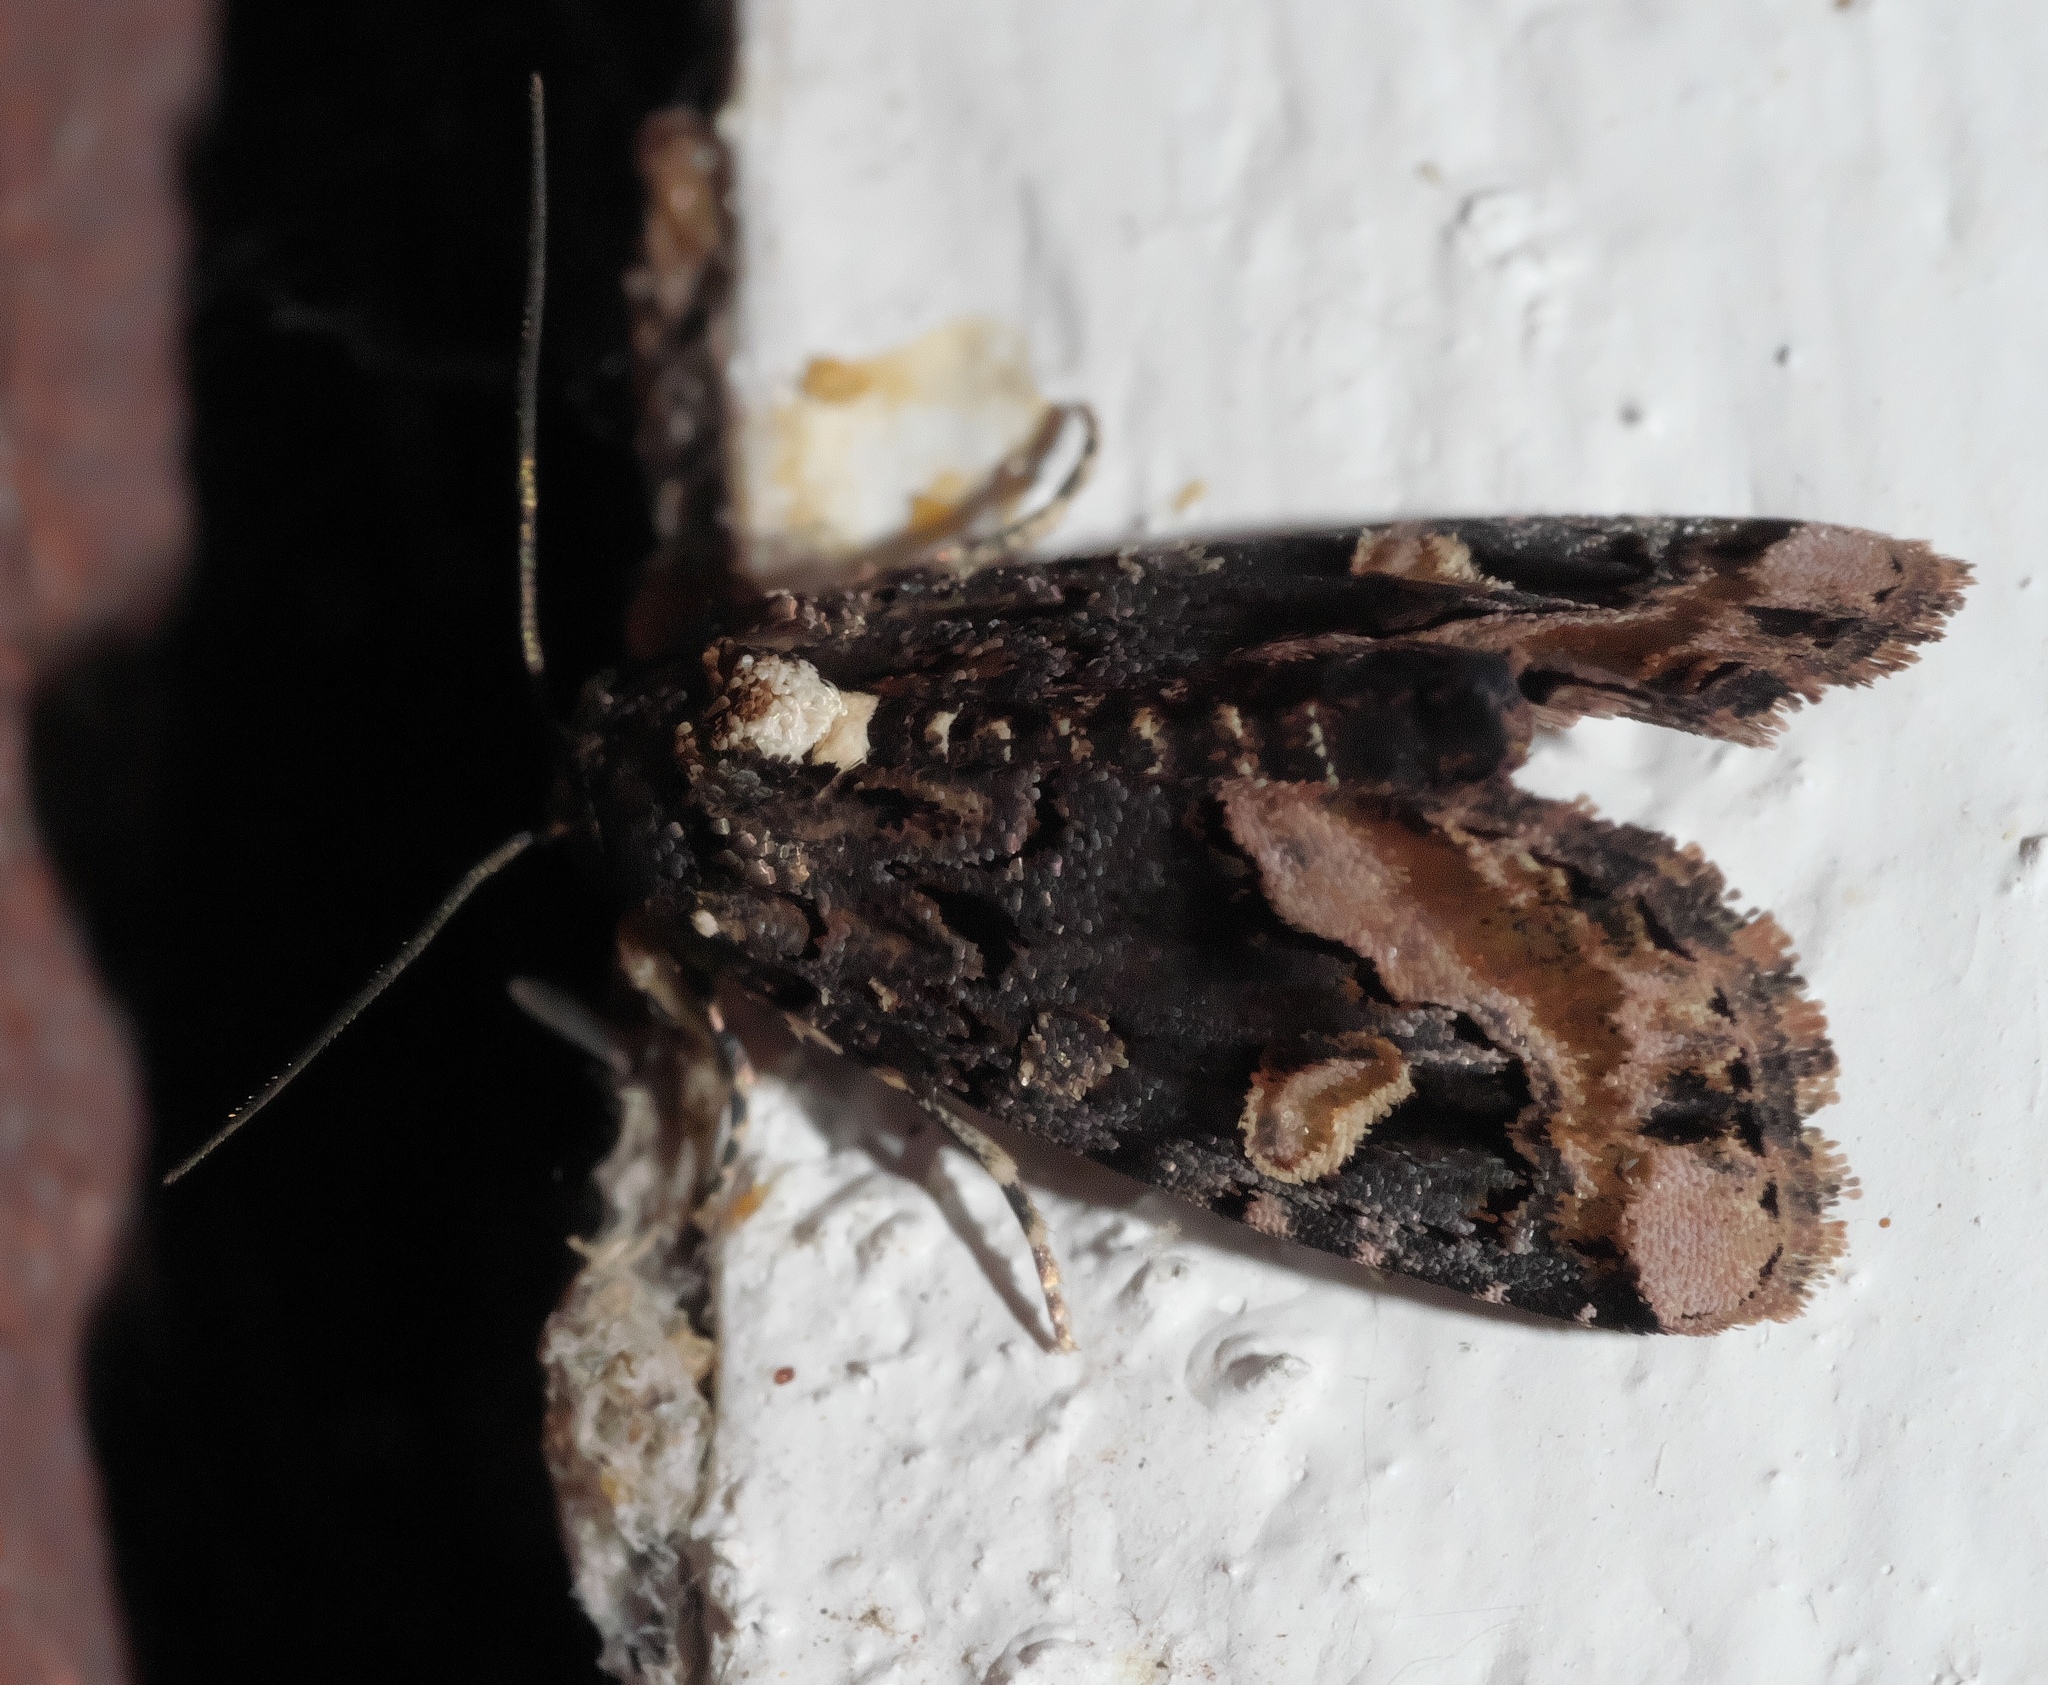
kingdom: Animalia
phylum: Arthropoda
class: Insecta
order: Lepidoptera
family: Noctuidae
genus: Homophoberia
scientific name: Homophoberia apicosa
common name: Black wedge-spot
